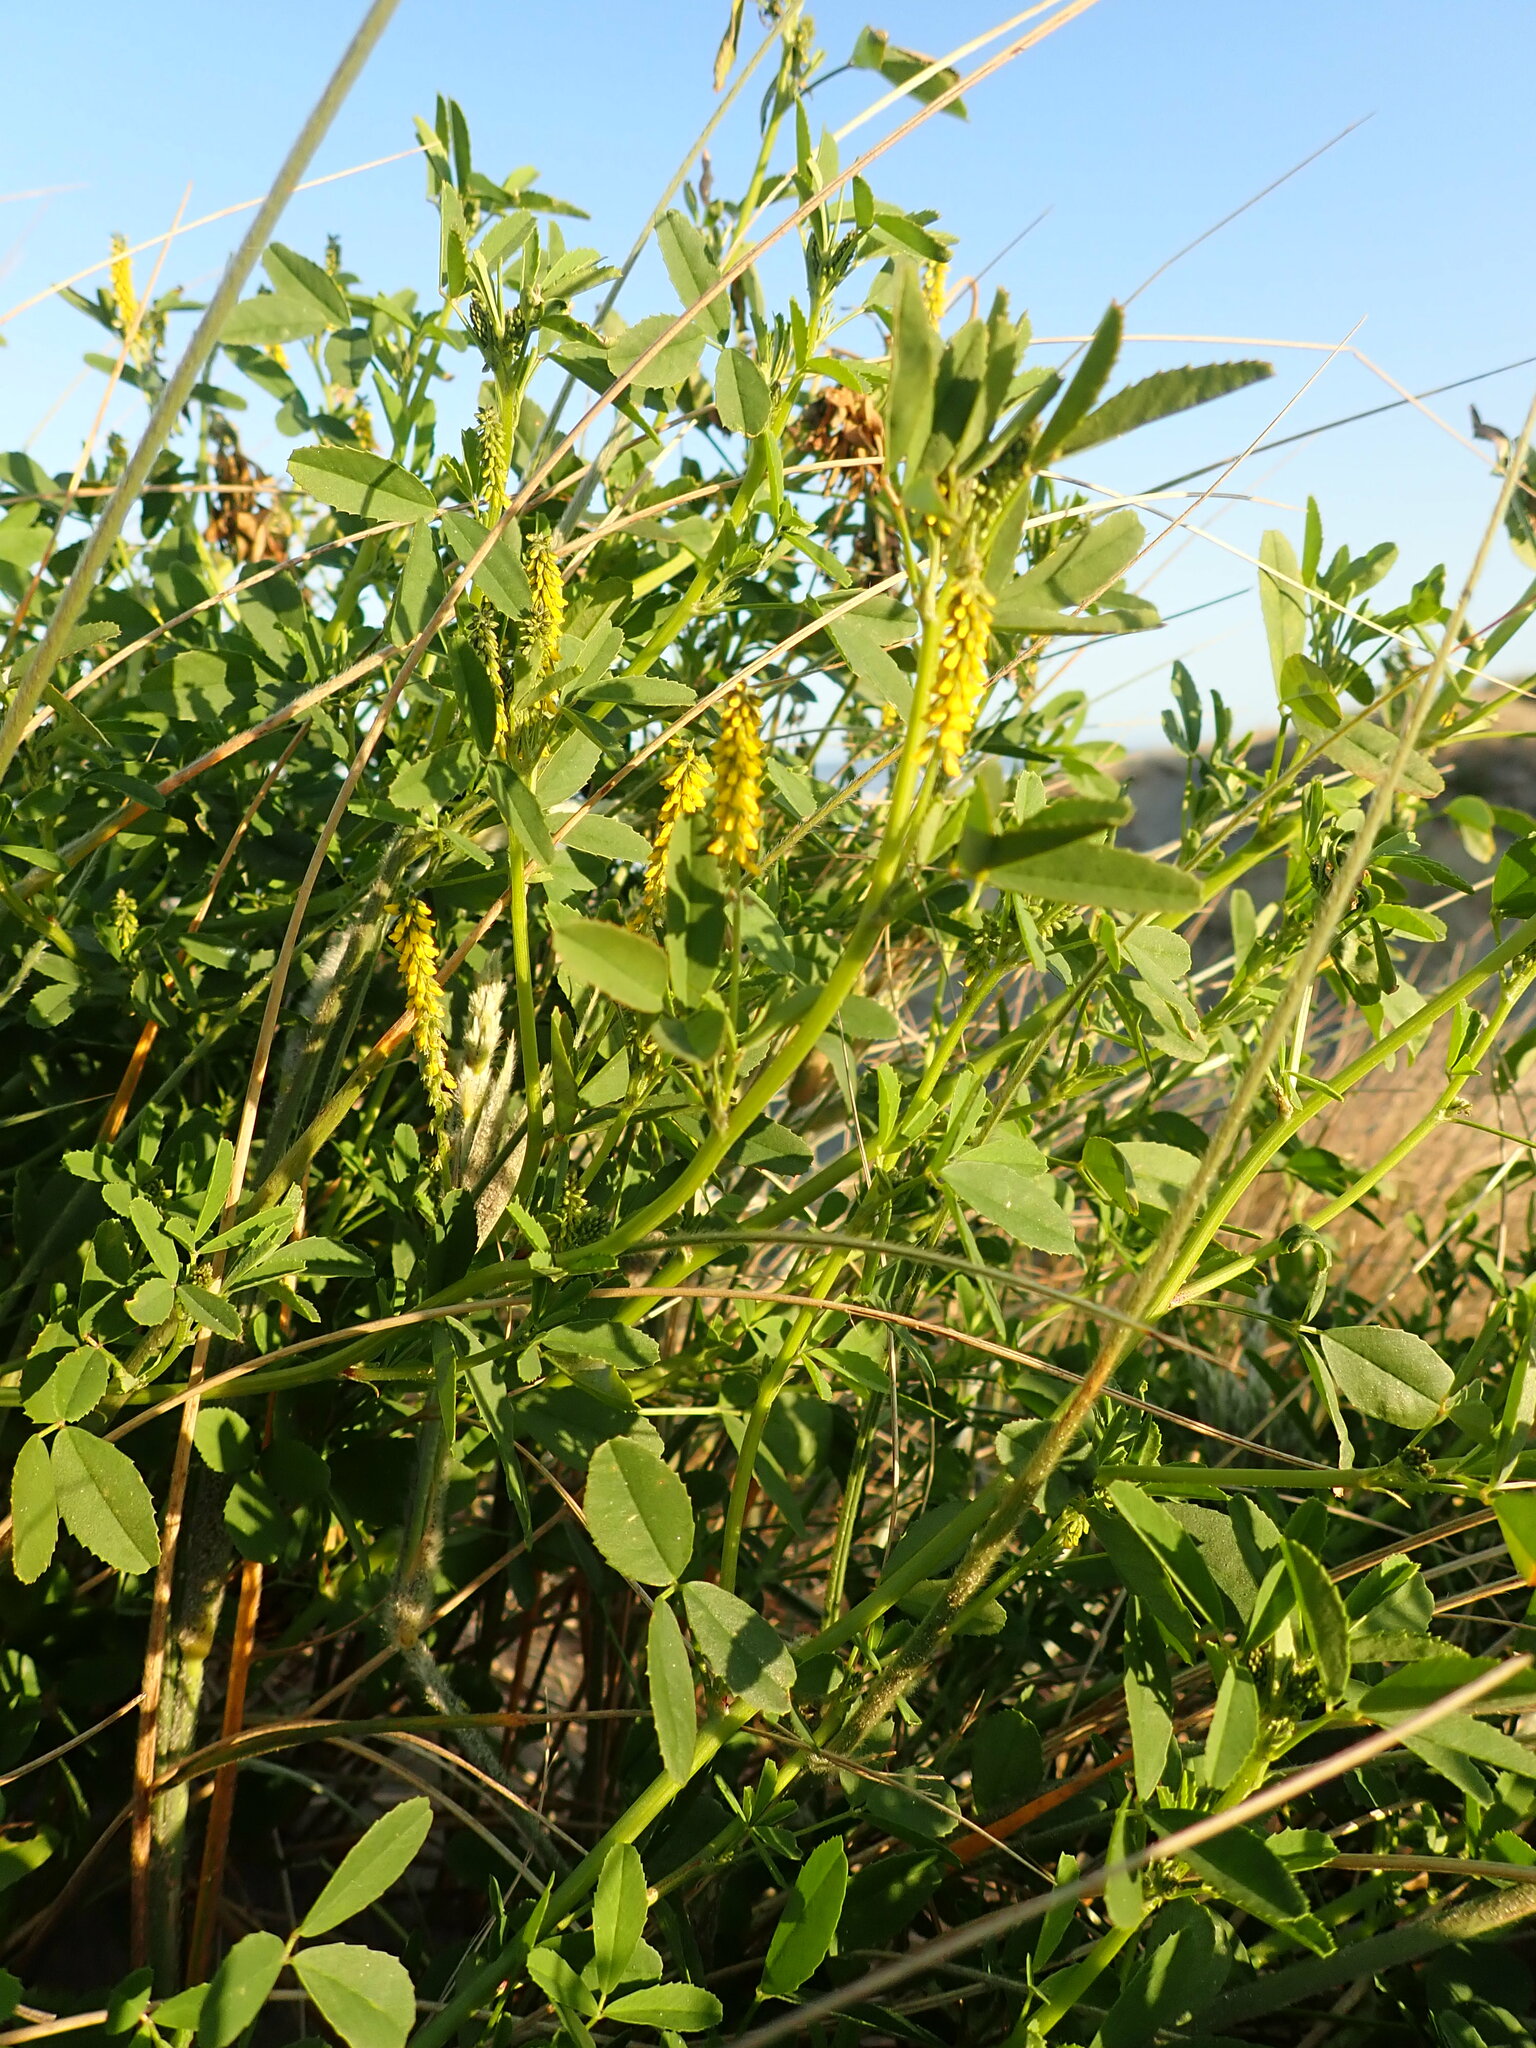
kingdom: Plantae
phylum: Tracheophyta
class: Magnoliopsida
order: Fabales
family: Fabaceae
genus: Melilotus
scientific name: Melilotus indicus
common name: Small melilot
